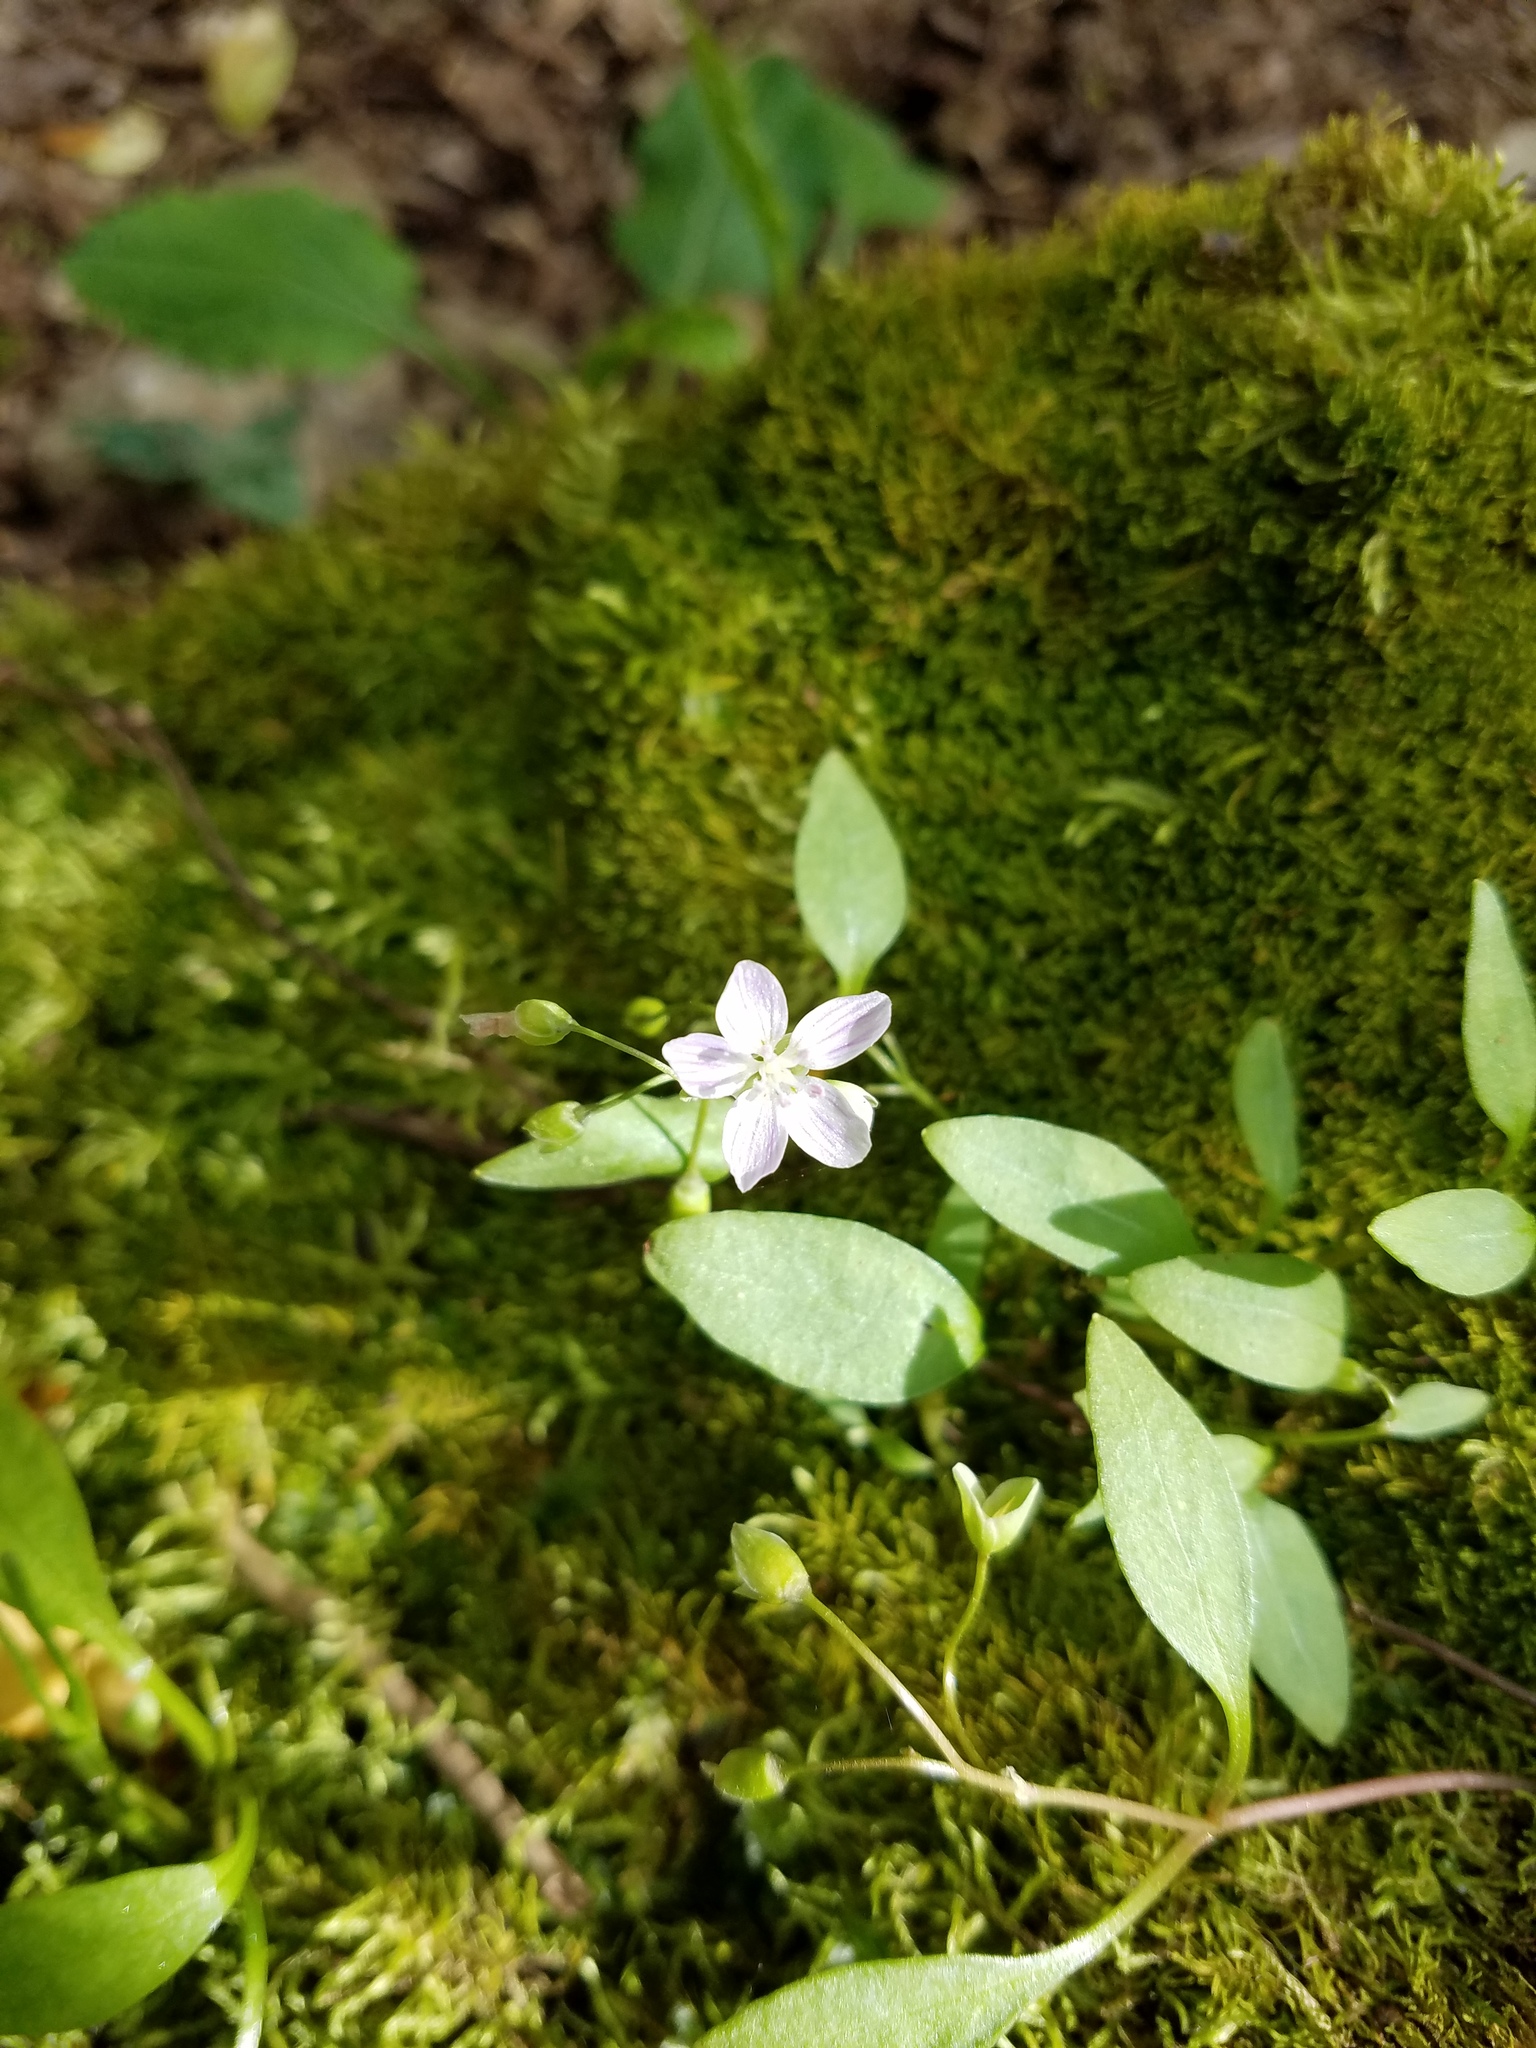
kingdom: Plantae
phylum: Tracheophyta
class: Magnoliopsida
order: Caryophyllales
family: Montiaceae
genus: Claytonia
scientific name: Claytonia caroliniana
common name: Carolina spring beauty
